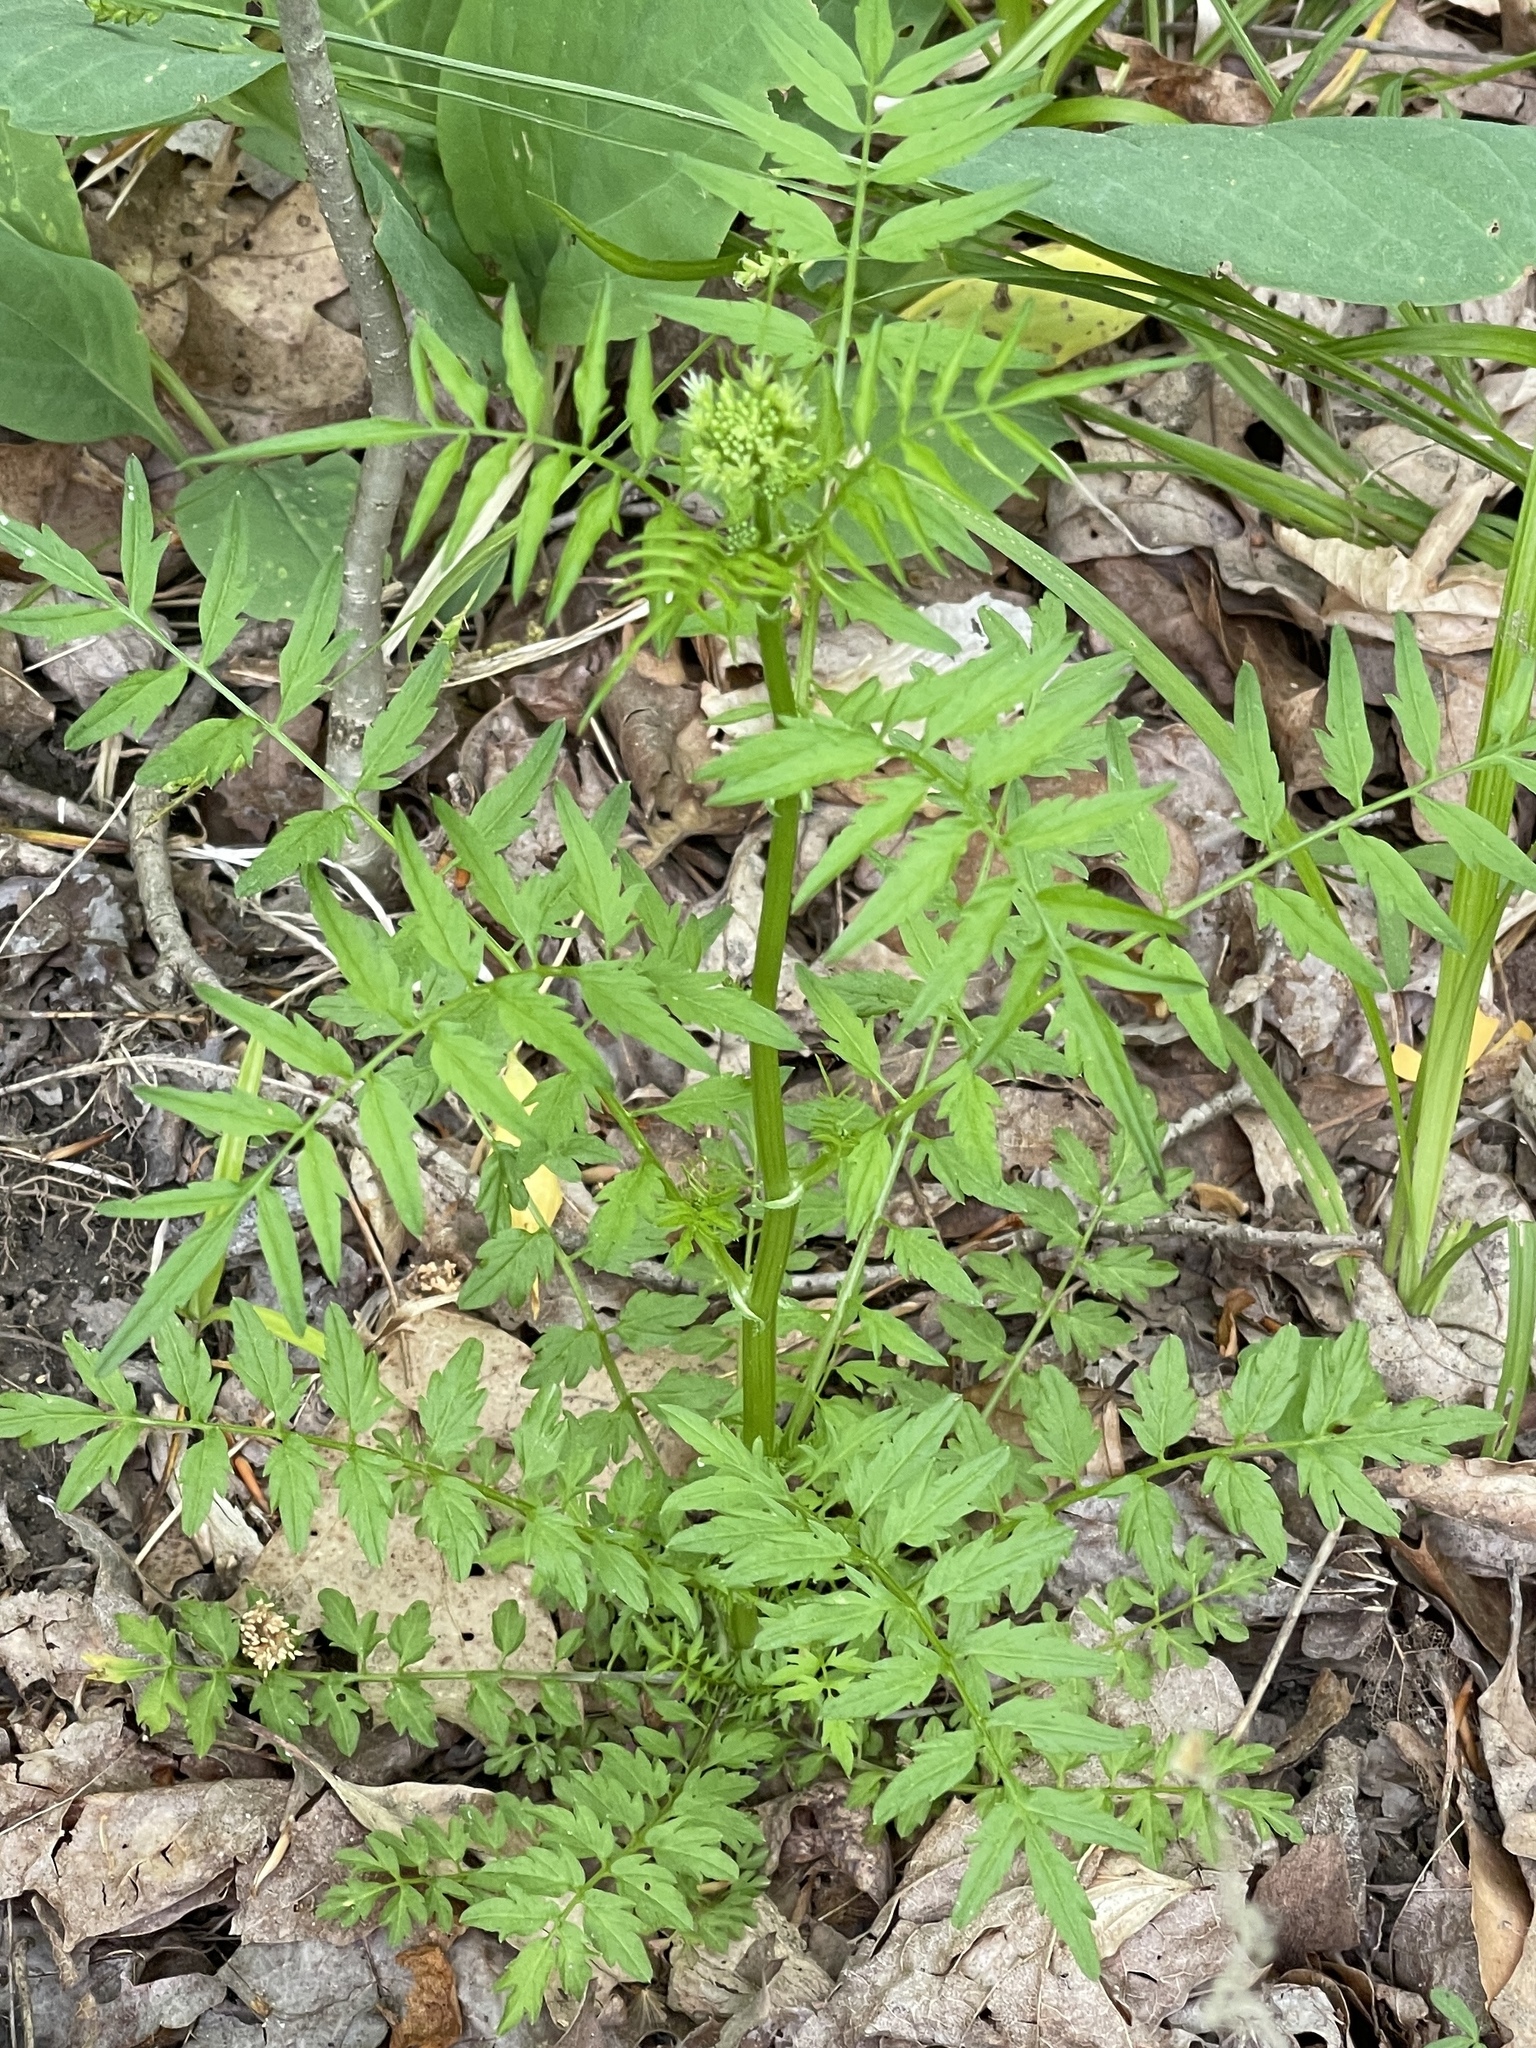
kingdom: Plantae
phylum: Tracheophyta
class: Magnoliopsida
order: Brassicales
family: Brassicaceae
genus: Cardamine
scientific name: Cardamine impatiens
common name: Narrow-leaved bitter-cress
